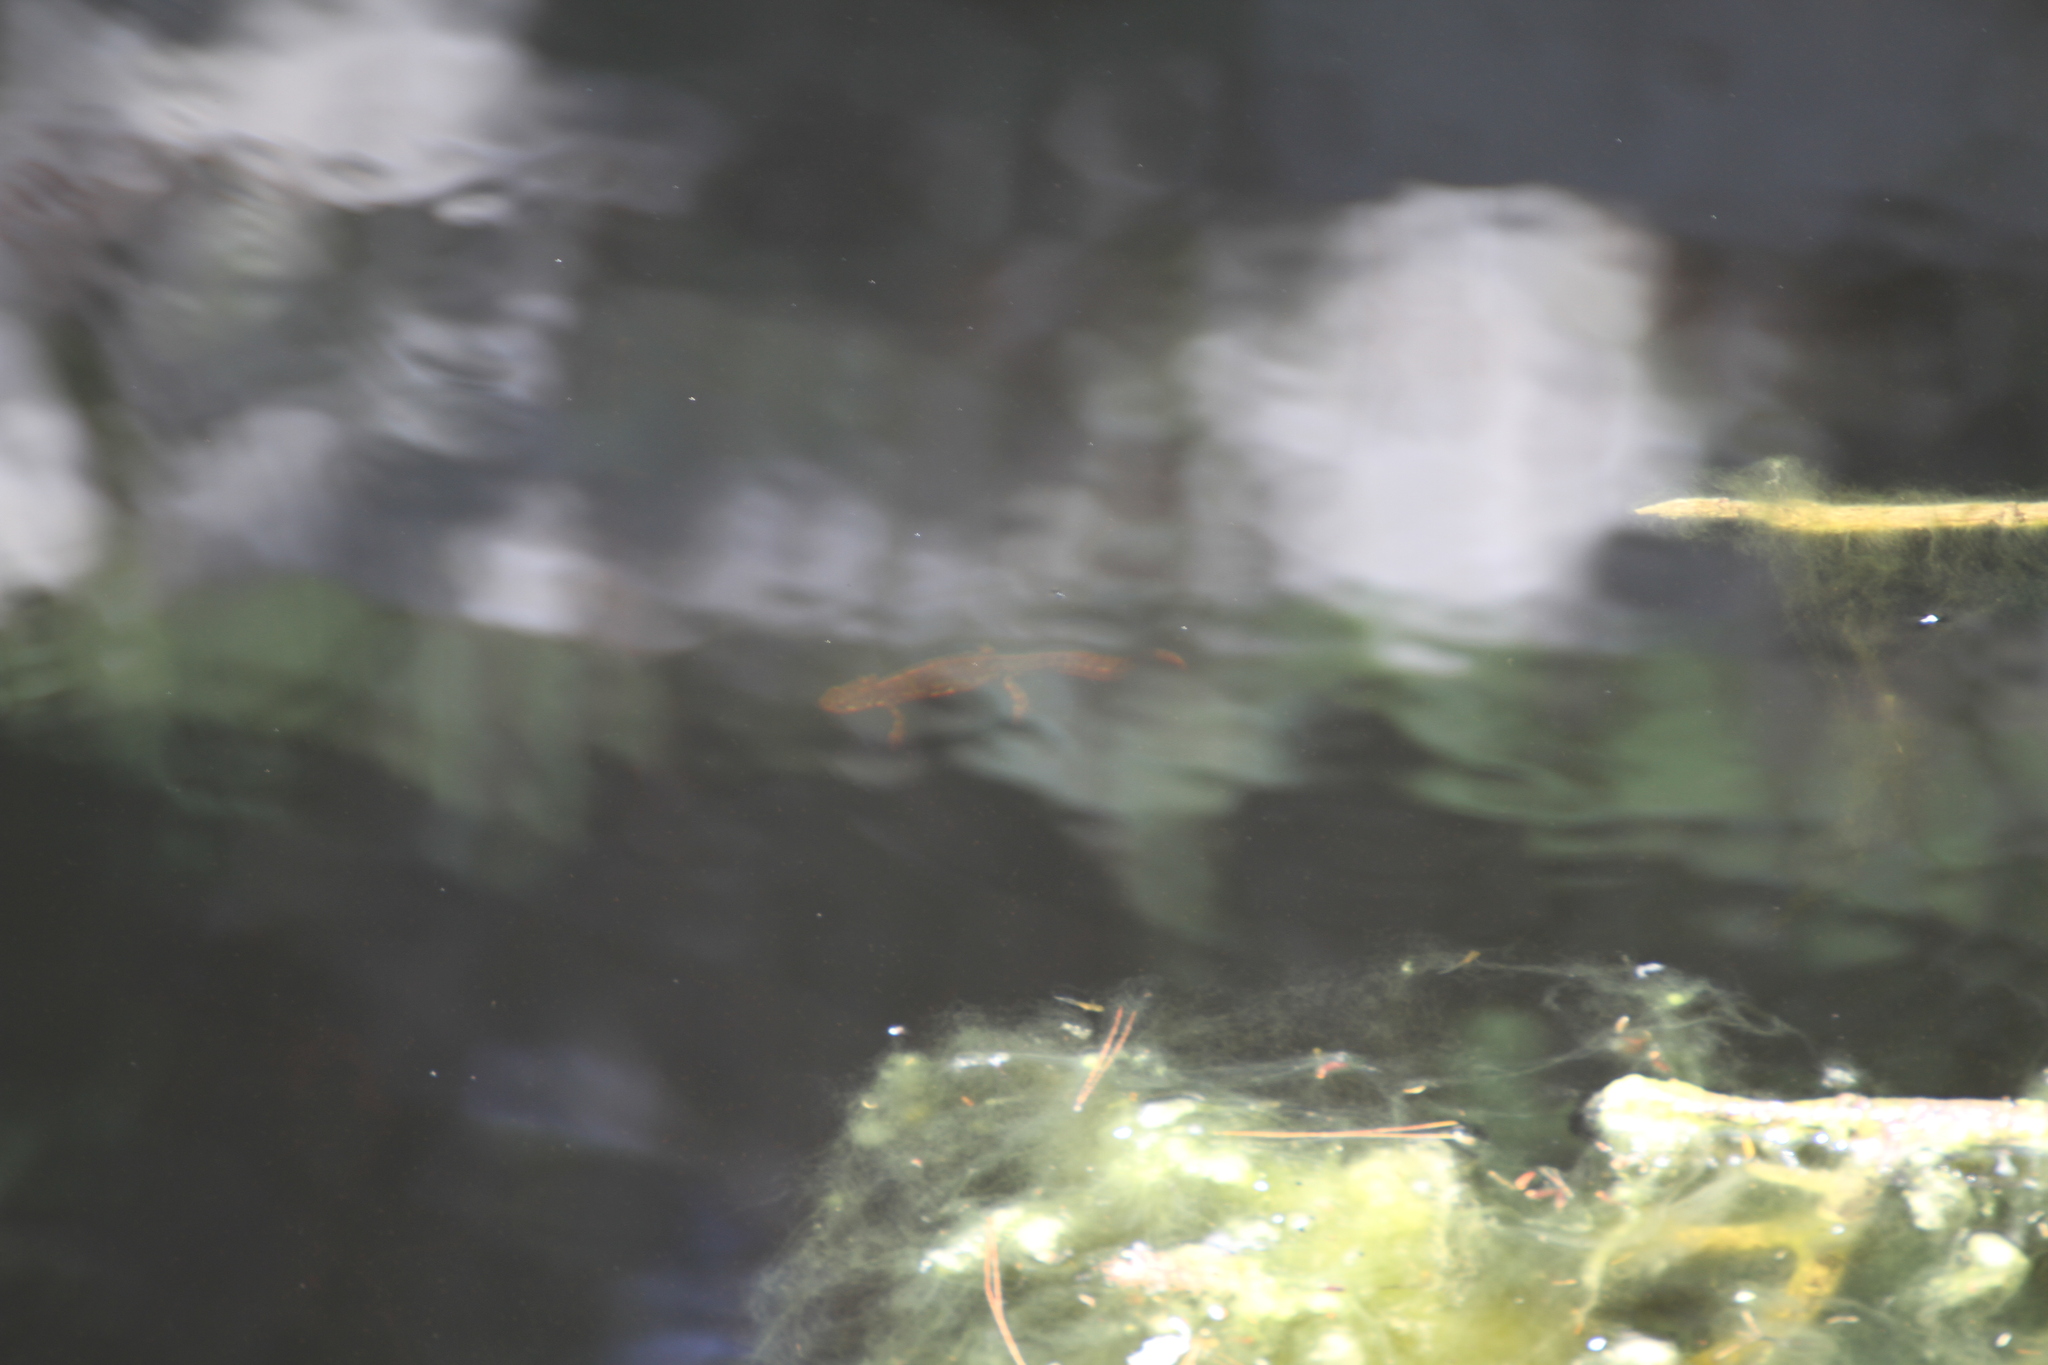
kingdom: Animalia
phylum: Chordata
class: Amphibia
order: Caudata
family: Salamandridae
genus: Triturus
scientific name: Triturus marmoratus
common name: Marbled newt
